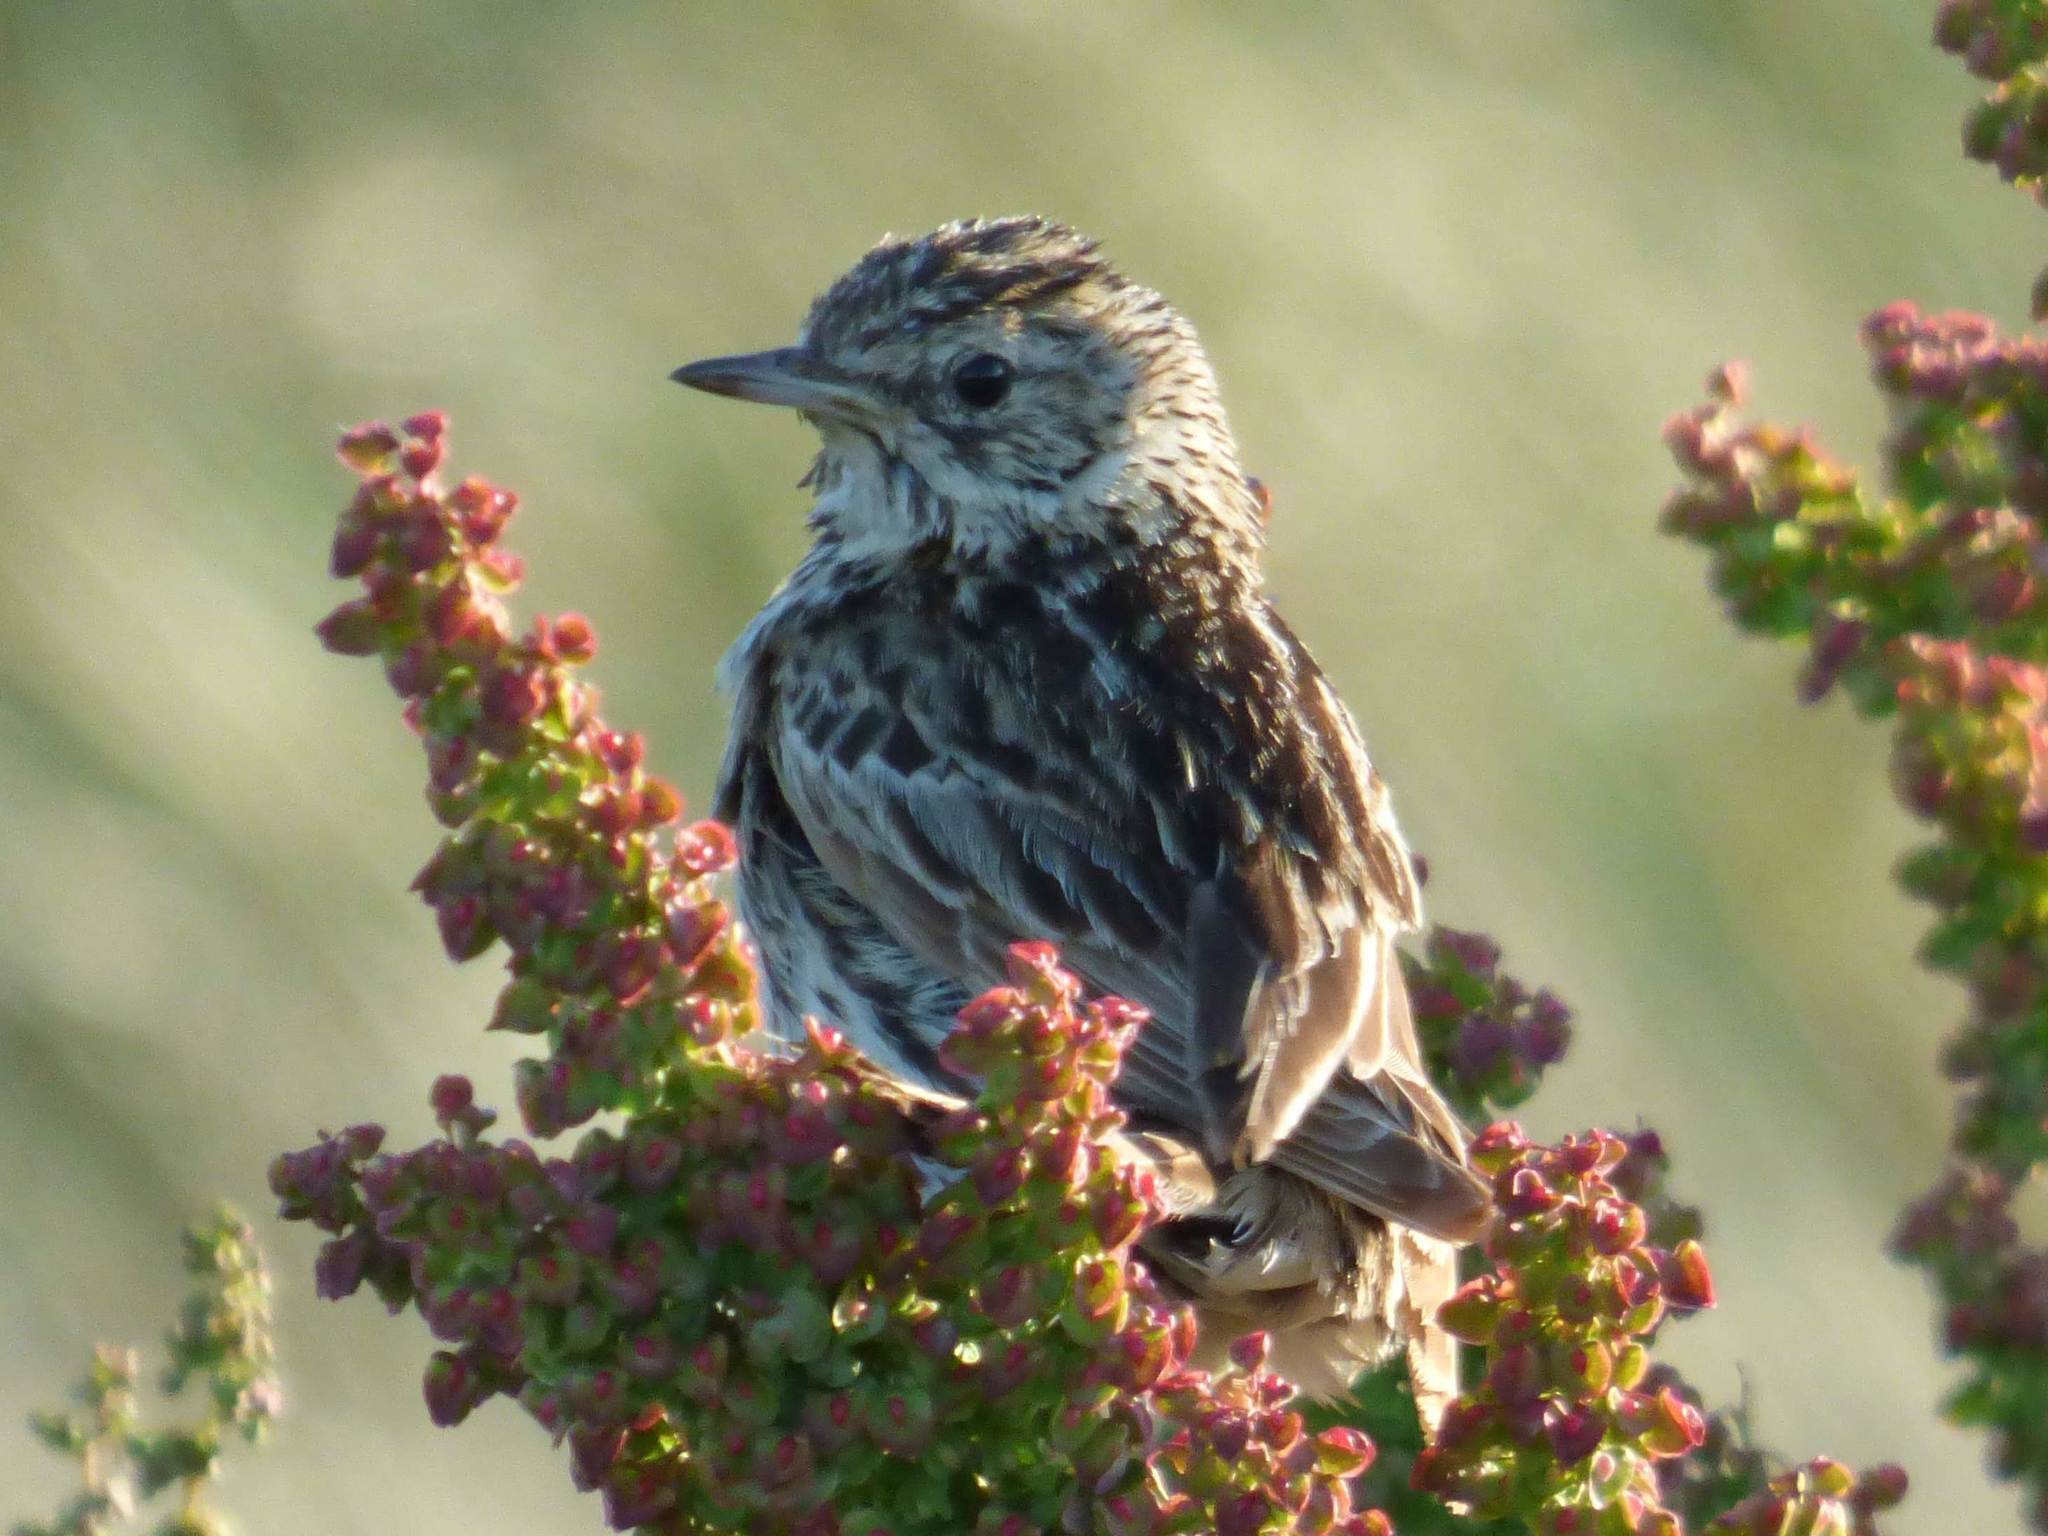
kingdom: Animalia
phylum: Chordata
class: Aves
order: Passeriformes
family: Motacillidae
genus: Anthus
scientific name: Anthus correndera
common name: Correndera pipit
